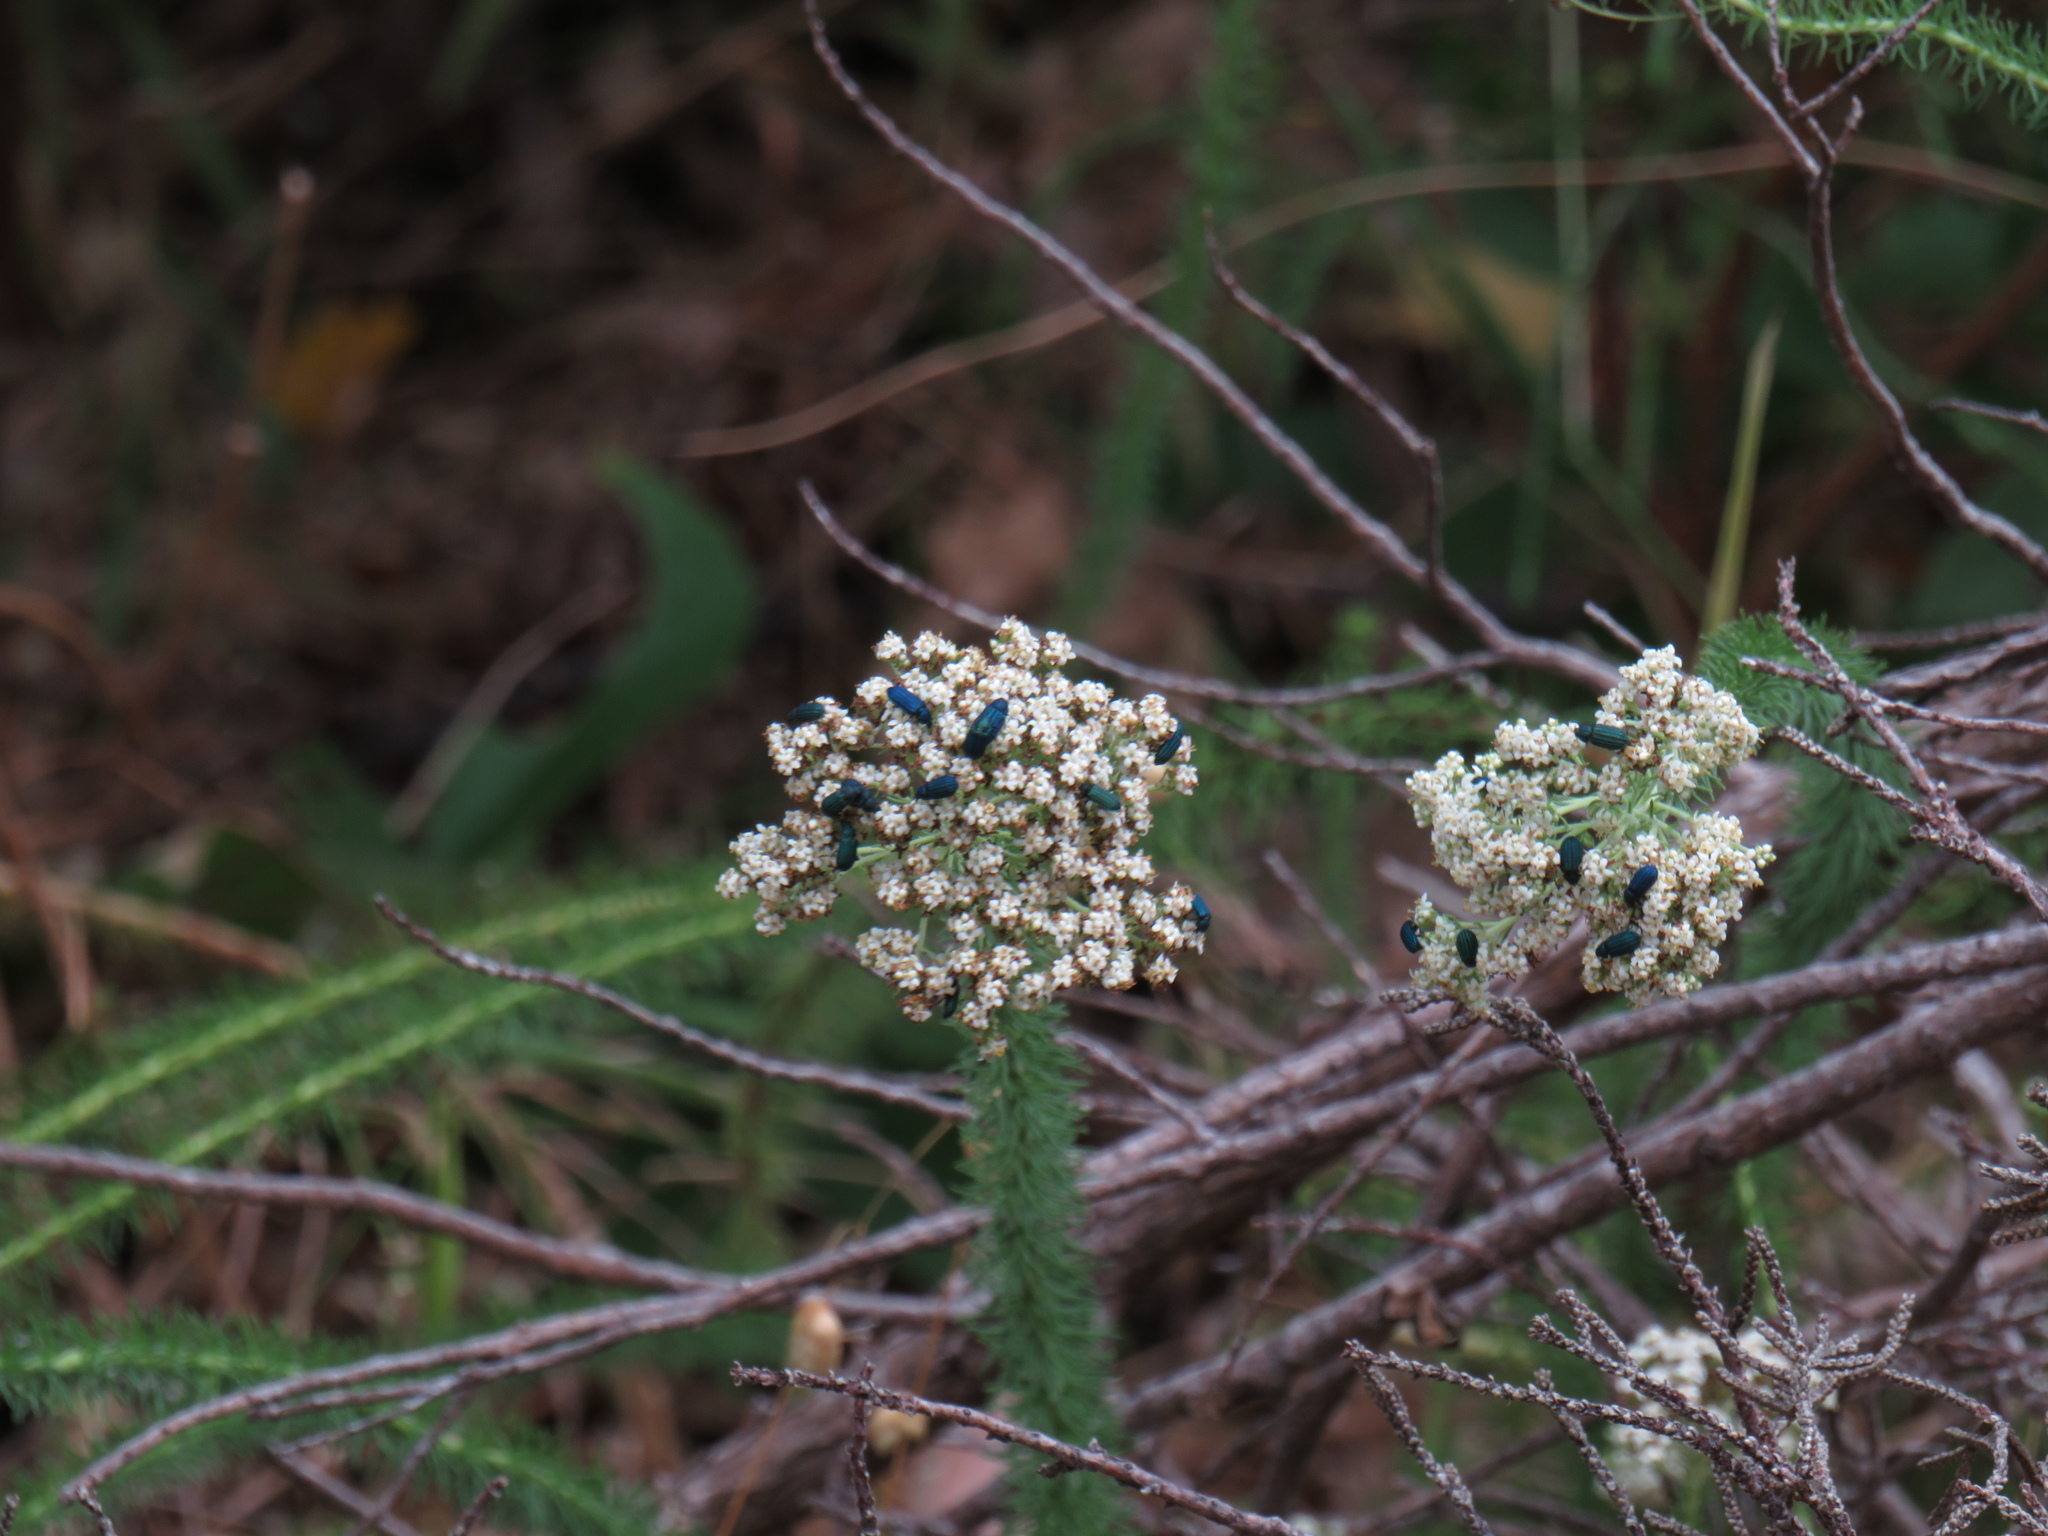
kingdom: Plantae
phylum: Tracheophyta
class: Magnoliopsida
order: Lamiales
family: Scrophulariaceae
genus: Selago
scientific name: Selago corymbosa
